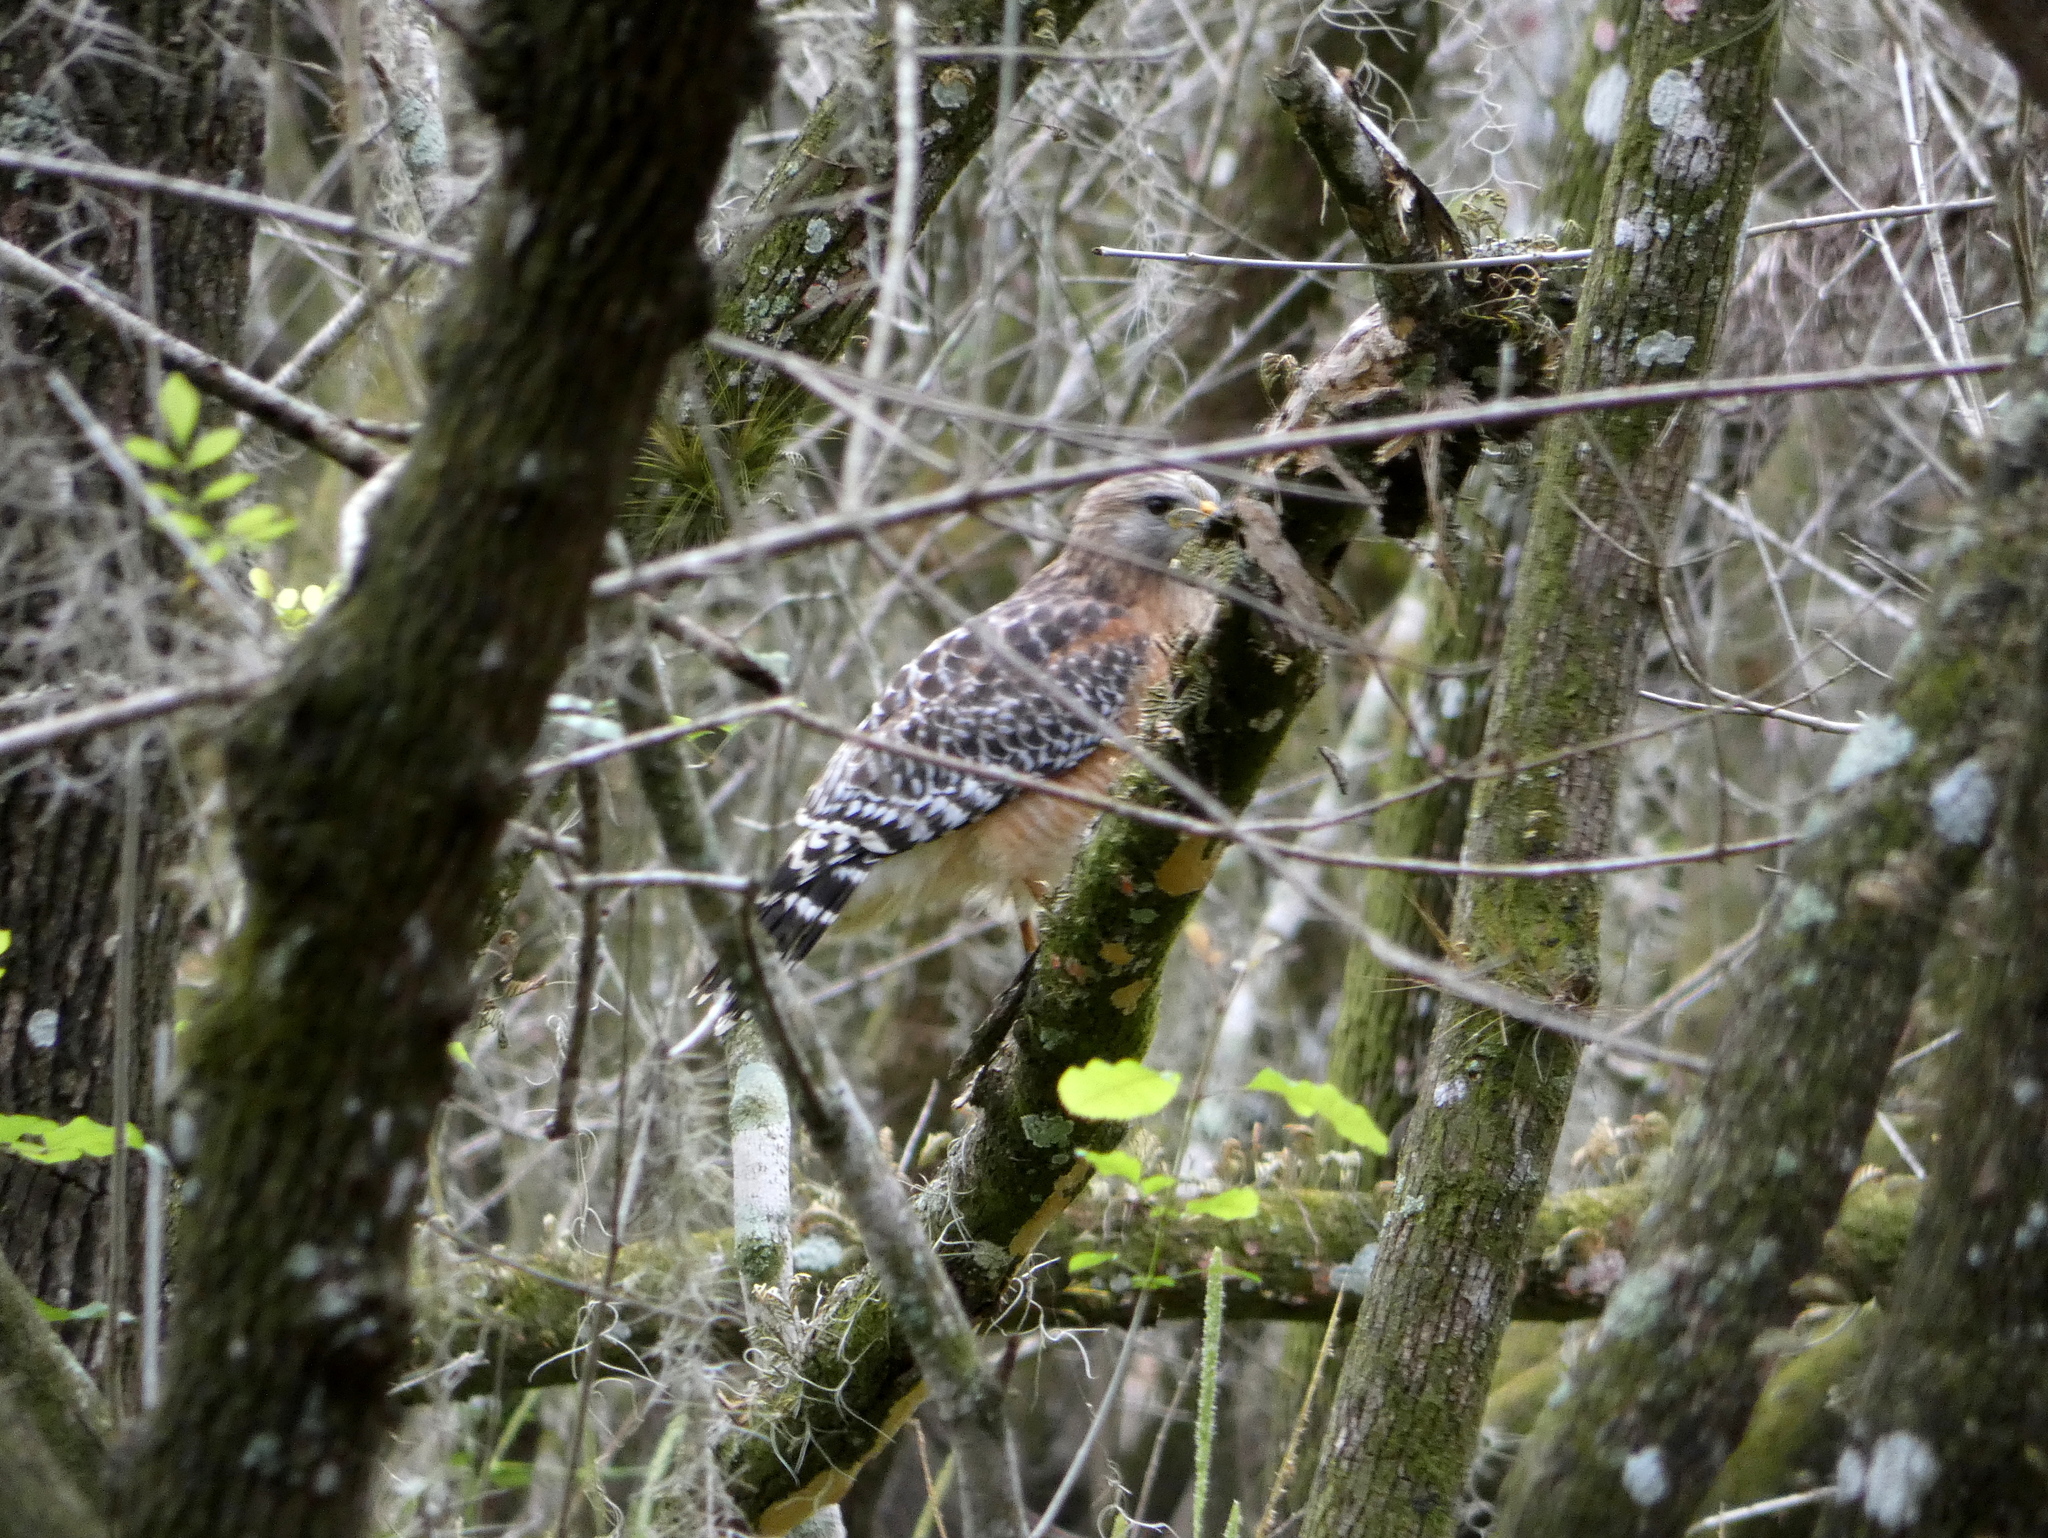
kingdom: Animalia
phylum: Chordata
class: Aves
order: Accipitriformes
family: Accipitridae
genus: Buteo
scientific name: Buteo lineatus
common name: Red-shouldered hawk
